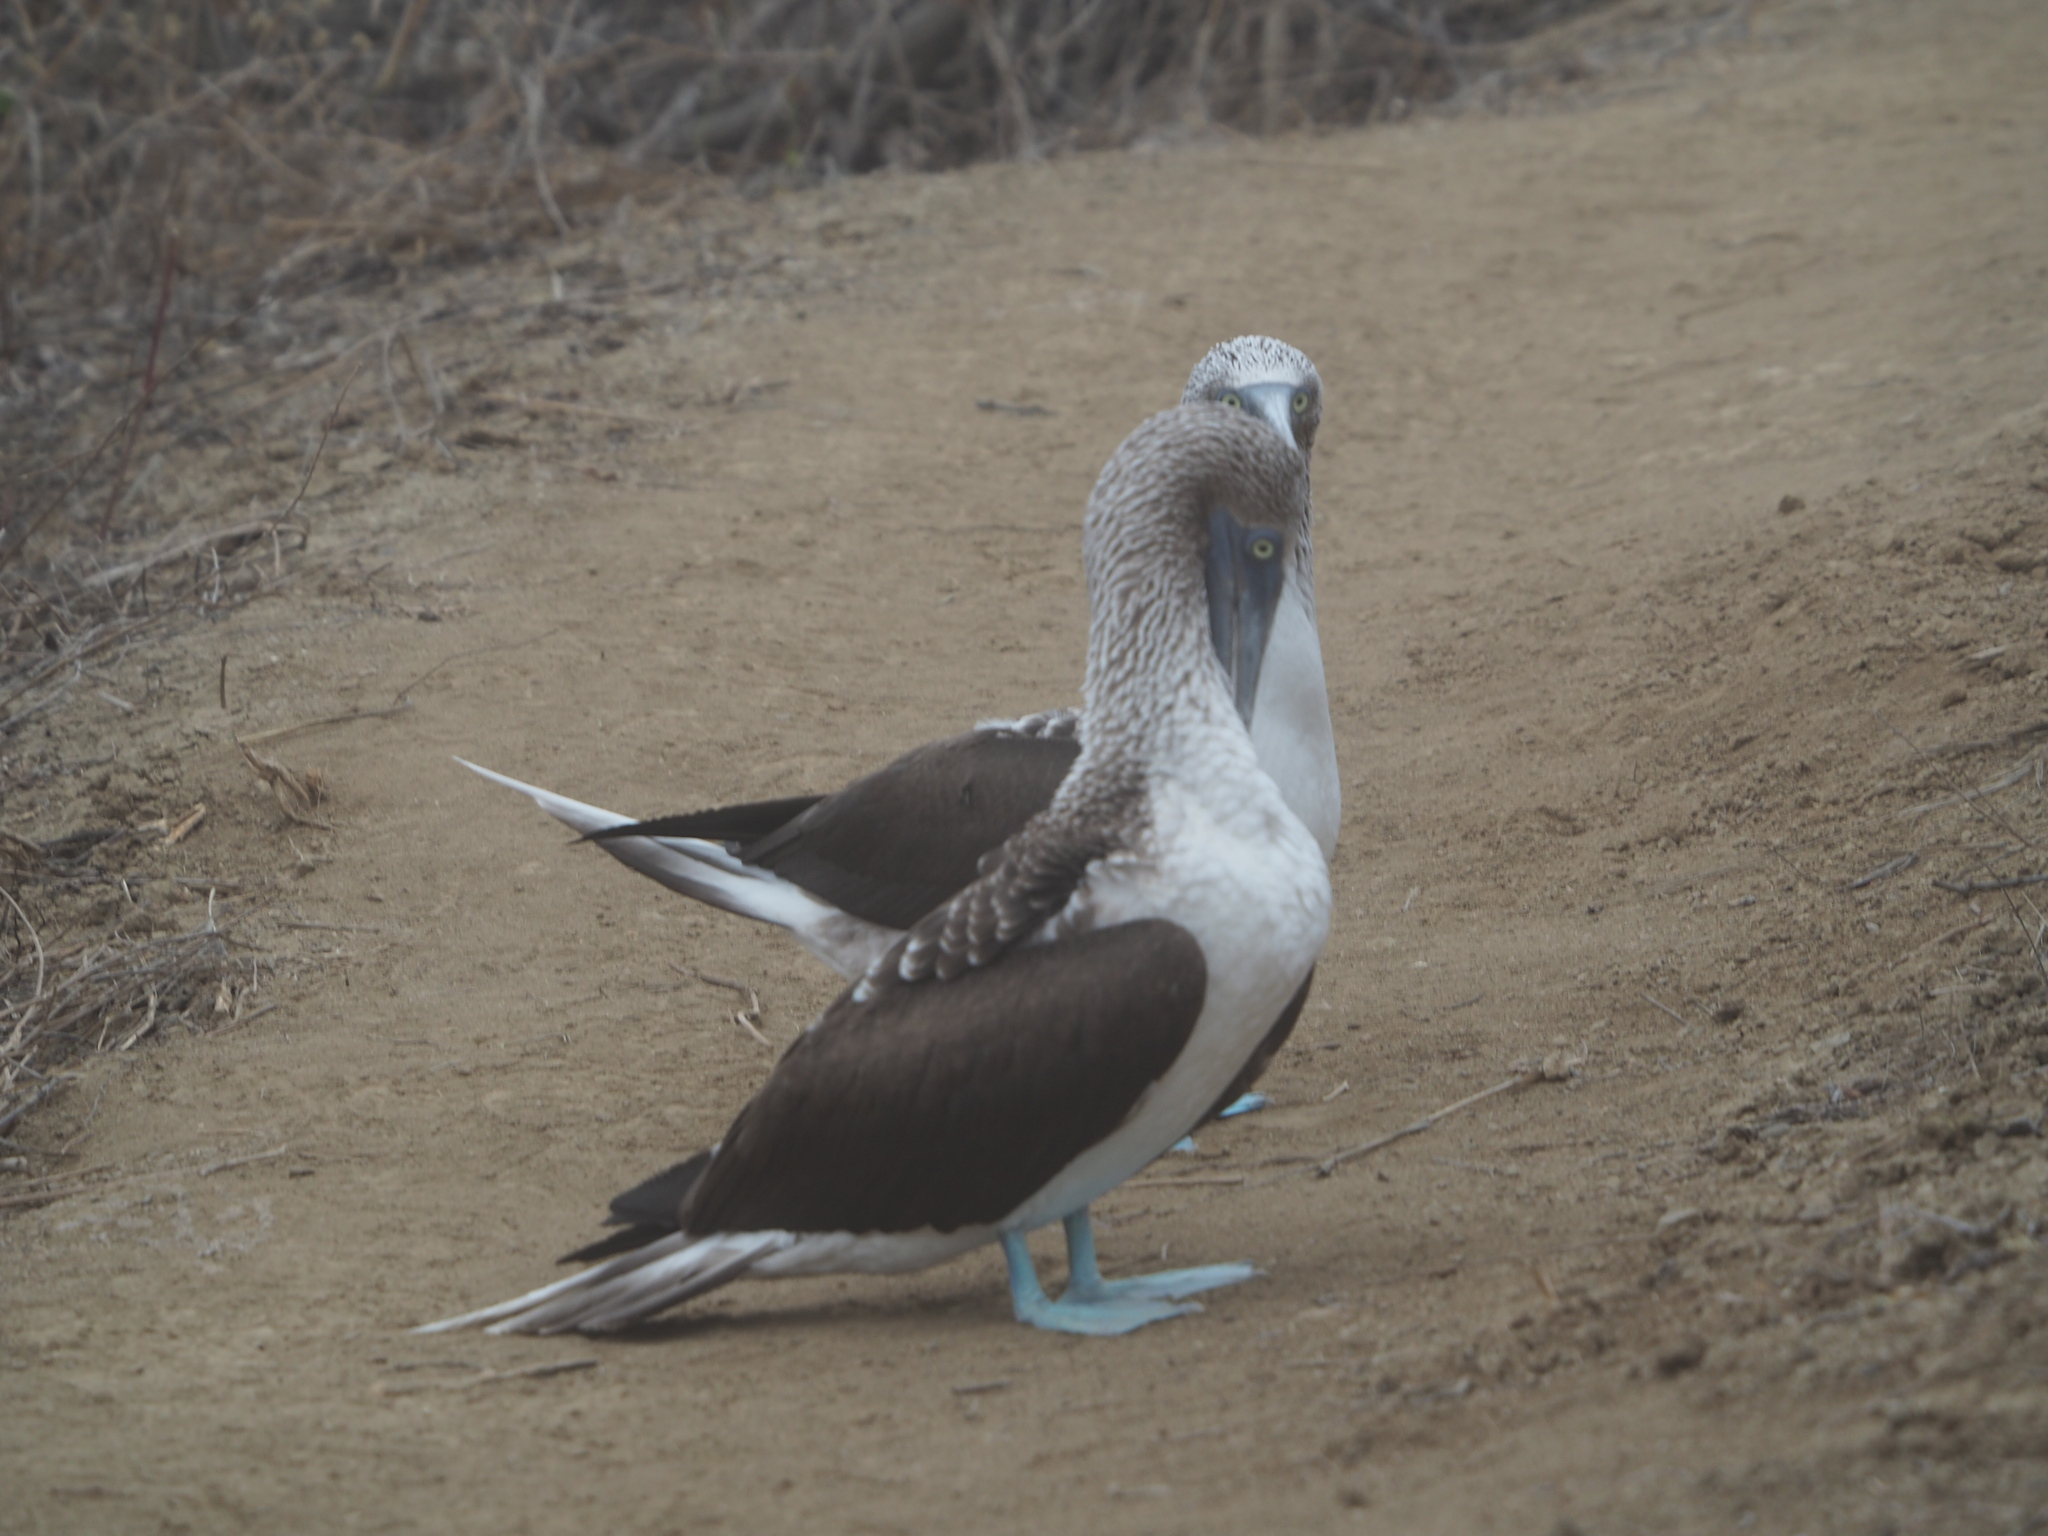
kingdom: Animalia
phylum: Chordata
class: Aves
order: Suliformes
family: Sulidae
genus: Sula
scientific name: Sula nebouxii
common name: Blue-footed booby
